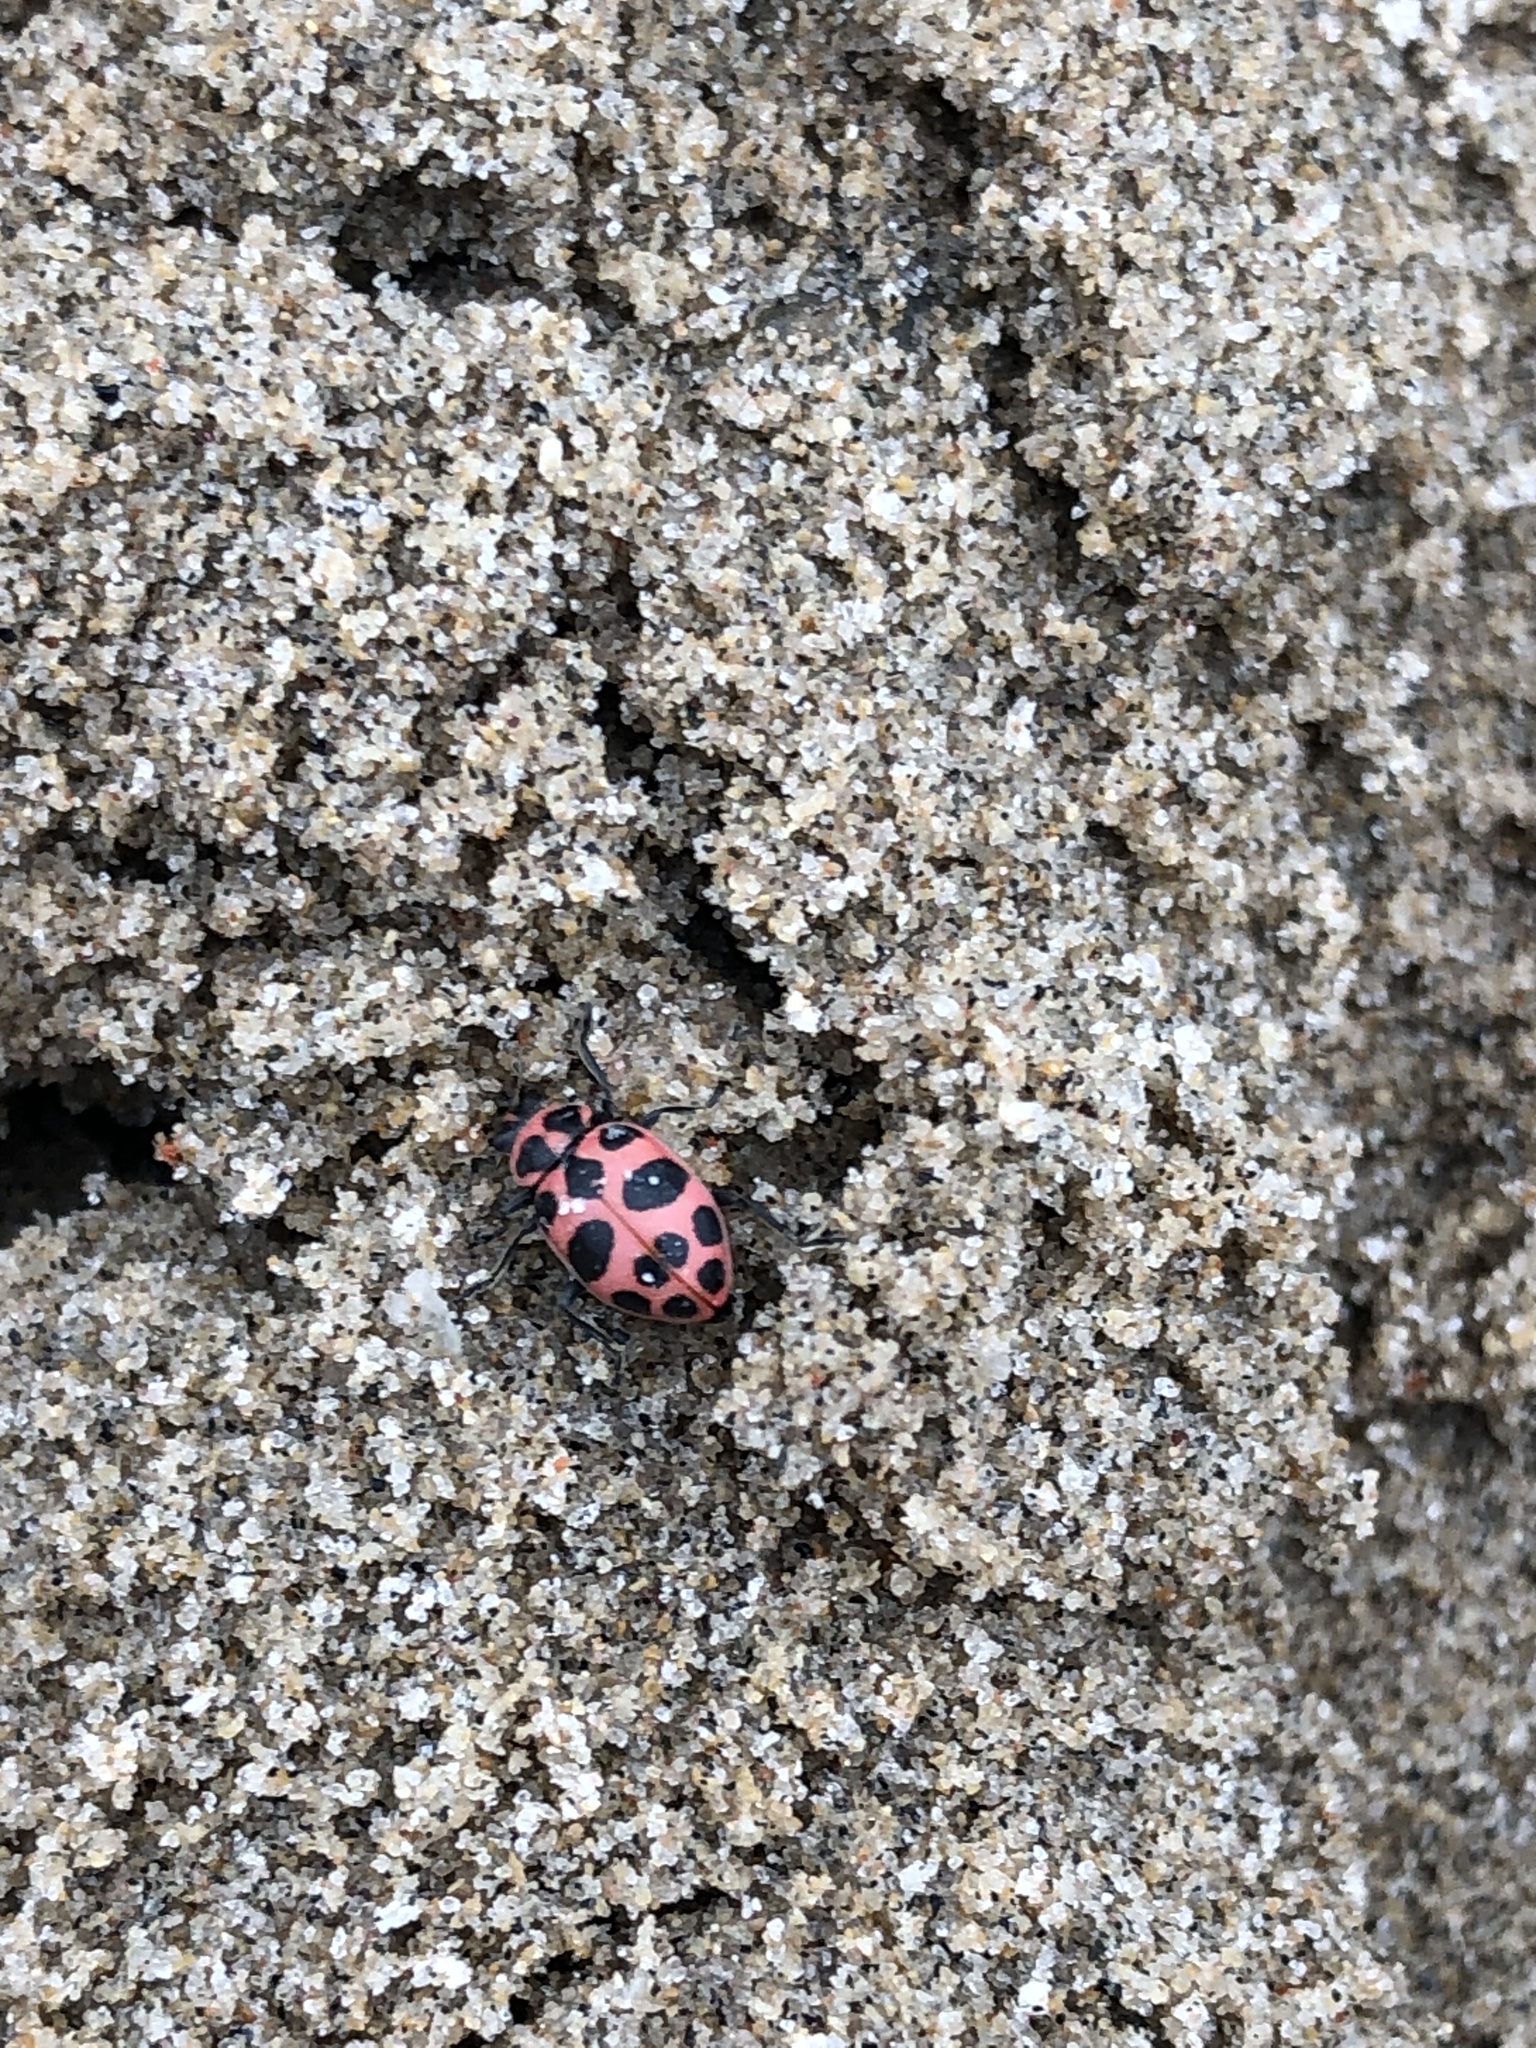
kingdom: Animalia
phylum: Arthropoda
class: Insecta
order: Coleoptera
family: Coccinellidae
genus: Coleomegilla
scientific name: Coleomegilla maculata
